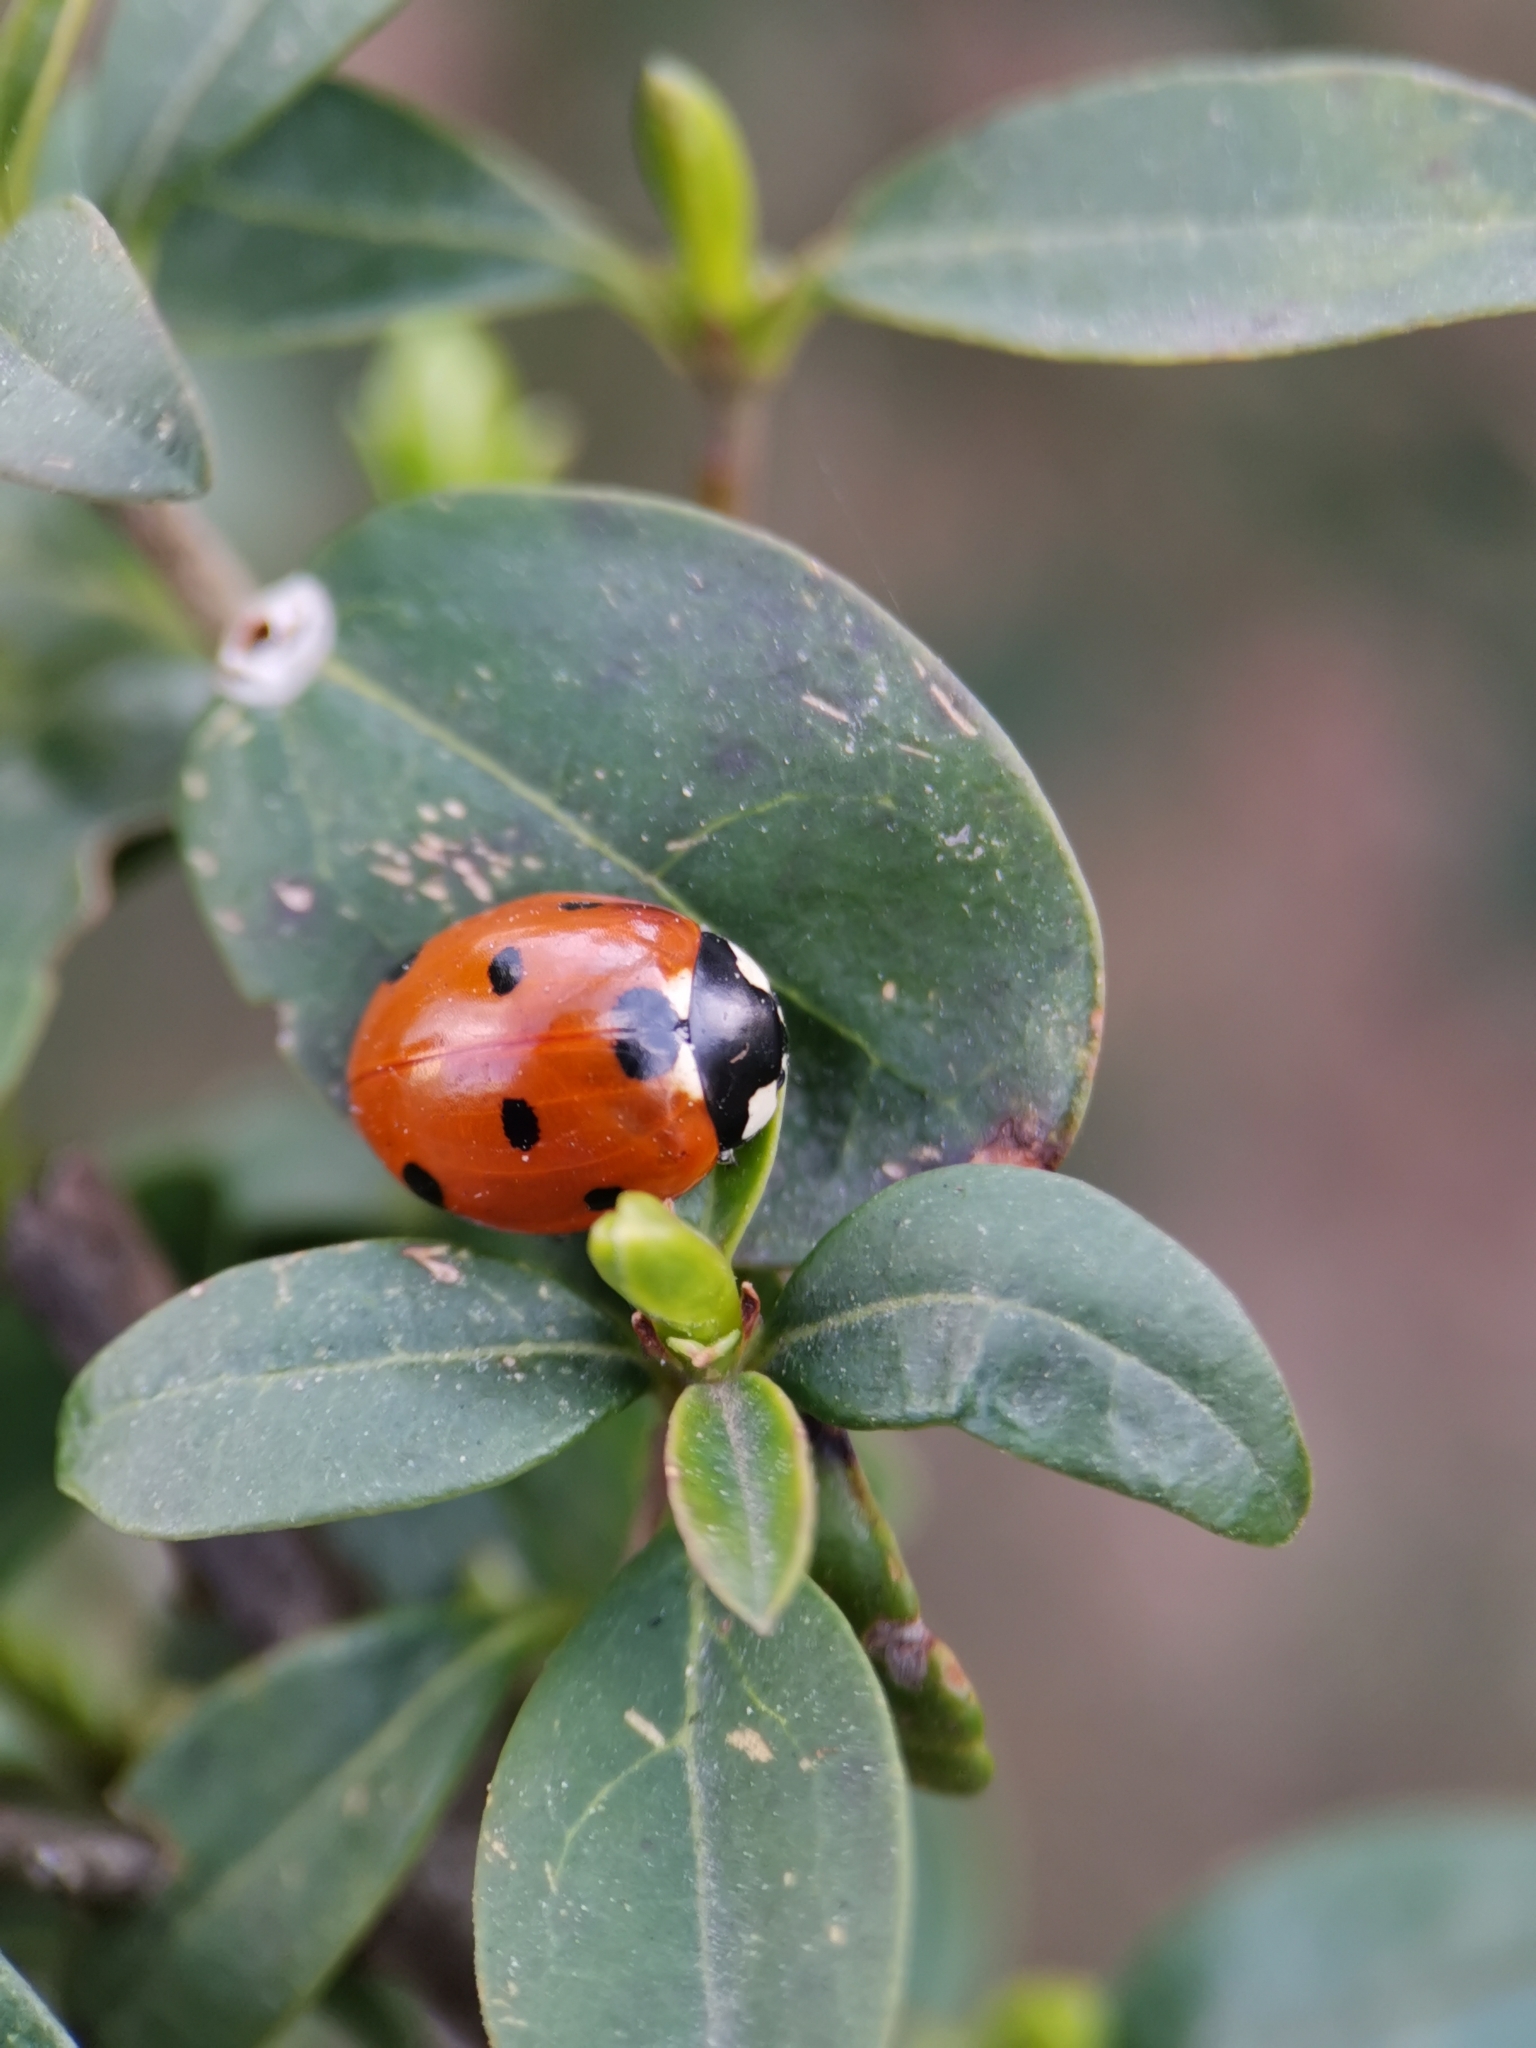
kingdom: Animalia
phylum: Arthropoda
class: Insecta
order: Coleoptera
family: Coccinellidae
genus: Coccinella
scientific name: Coccinella septempunctata
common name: Sevenspotted lady beetle
